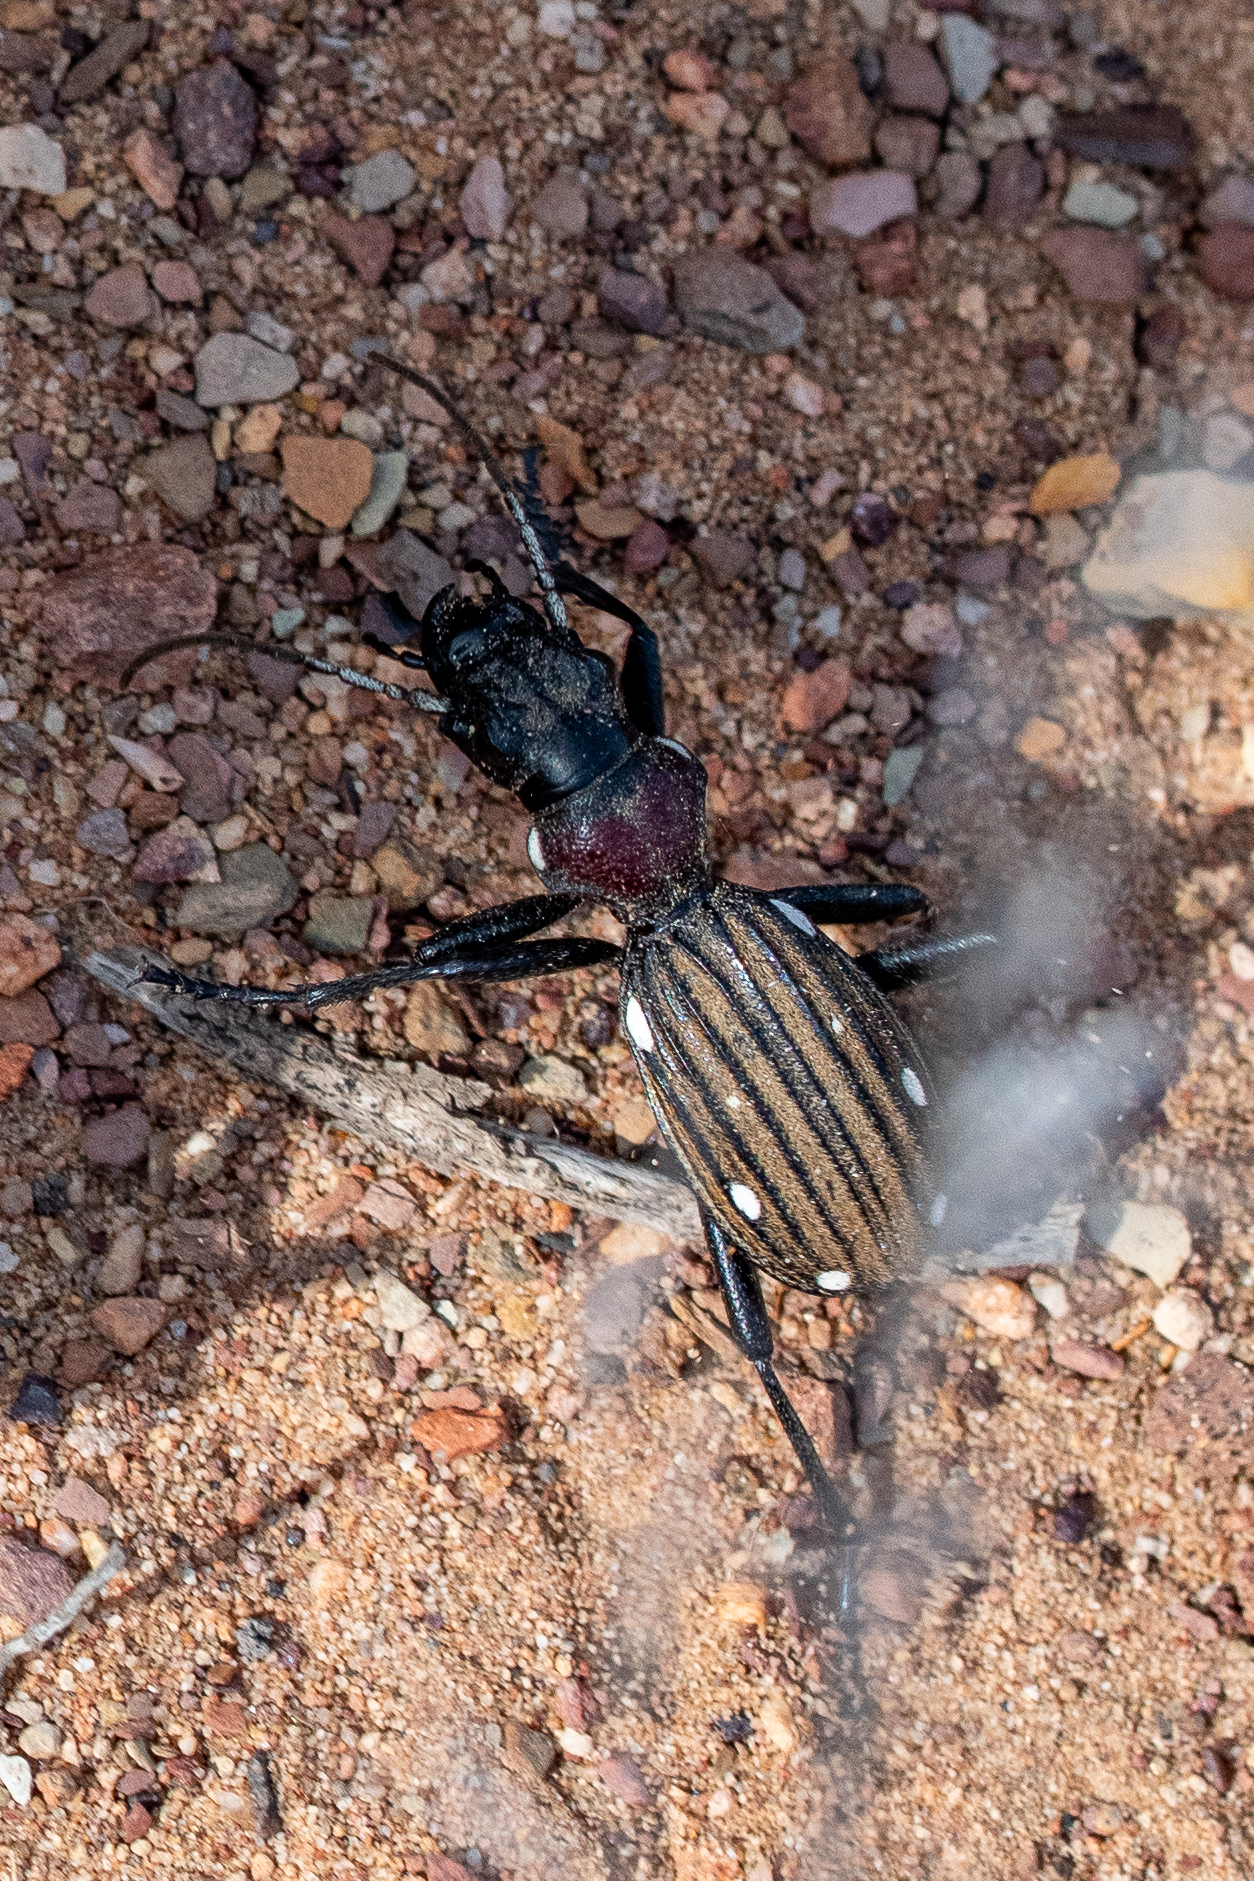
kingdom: Animalia
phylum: Arthropoda
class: Insecta
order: Coleoptera
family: Carabidae
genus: Anthia
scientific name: Anthia decemguttata
